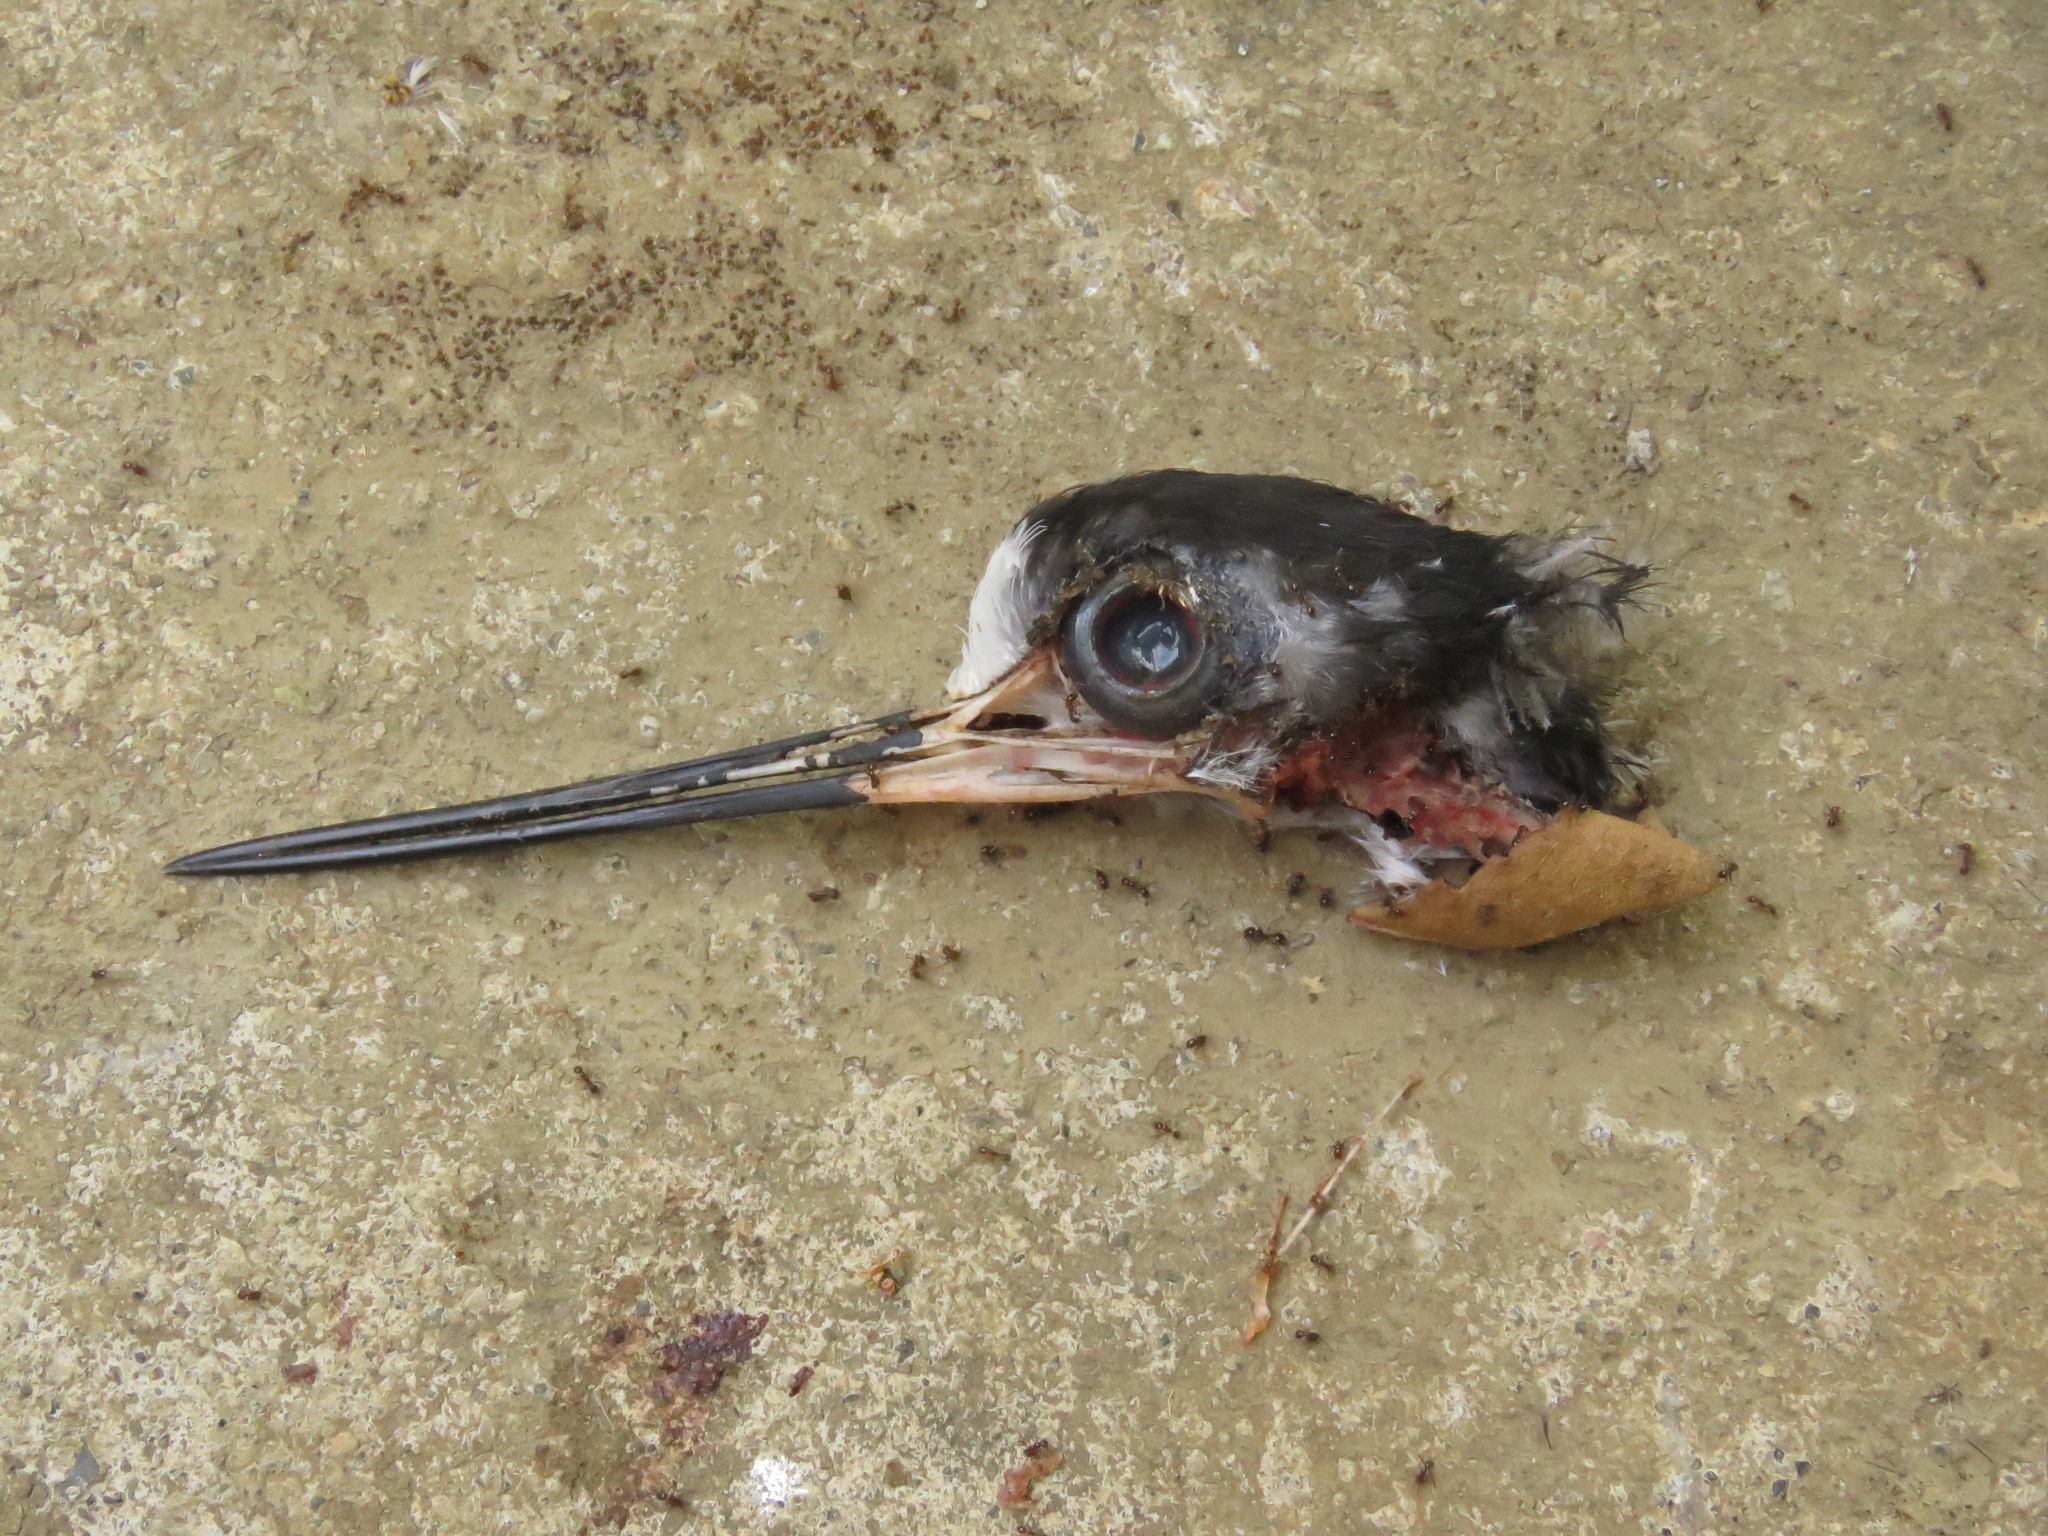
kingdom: Animalia
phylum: Chordata
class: Aves
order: Charadriiformes
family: Recurvirostridae
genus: Himantopus
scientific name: Himantopus mexicanus
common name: Black-necked stilt
